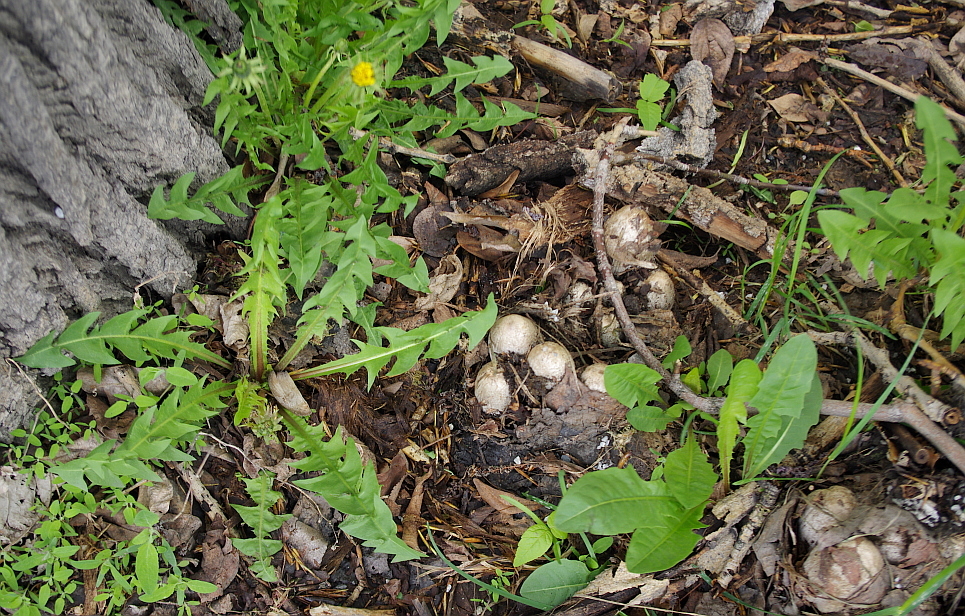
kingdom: Plantae
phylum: Tracheophyta
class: Magnoliopsida
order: Asterales
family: Asteraceae
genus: Taraxacum
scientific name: Taraxacum officinale
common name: Common dandelion
